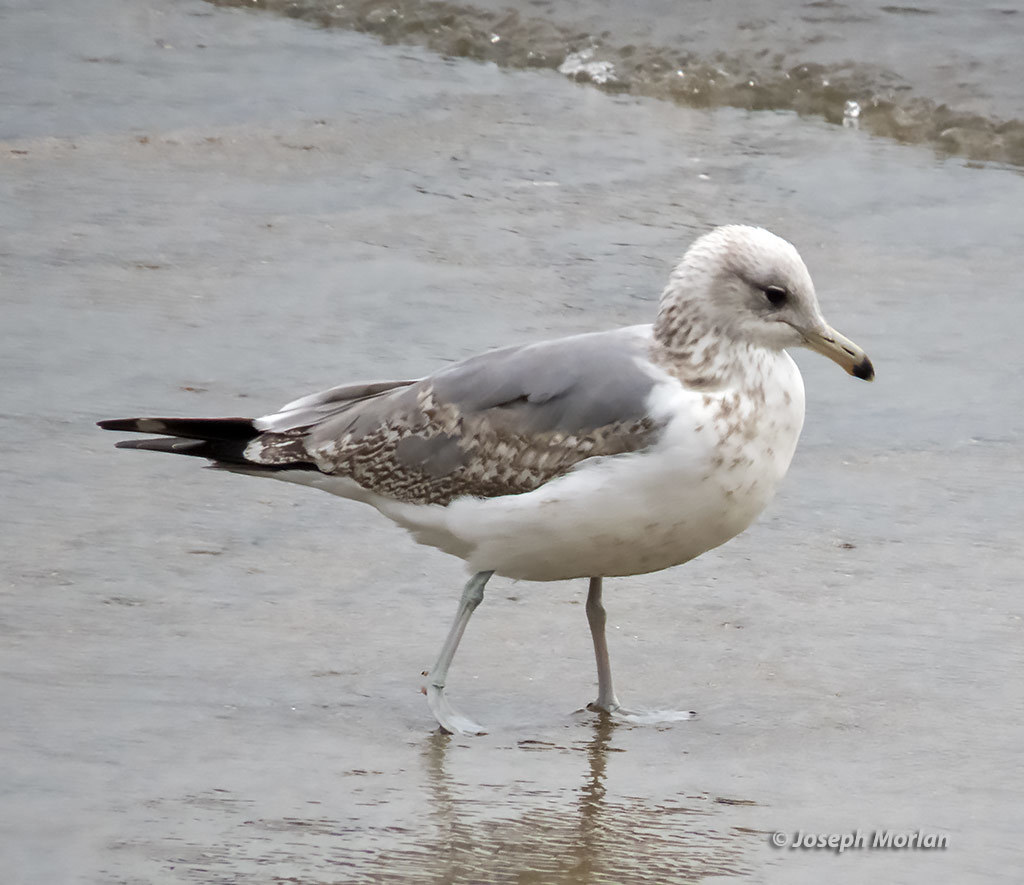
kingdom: Animalia
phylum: Chordata
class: Aves
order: Charadriiformes
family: Laridae
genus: Larus
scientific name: Larus californicus
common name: California gull
